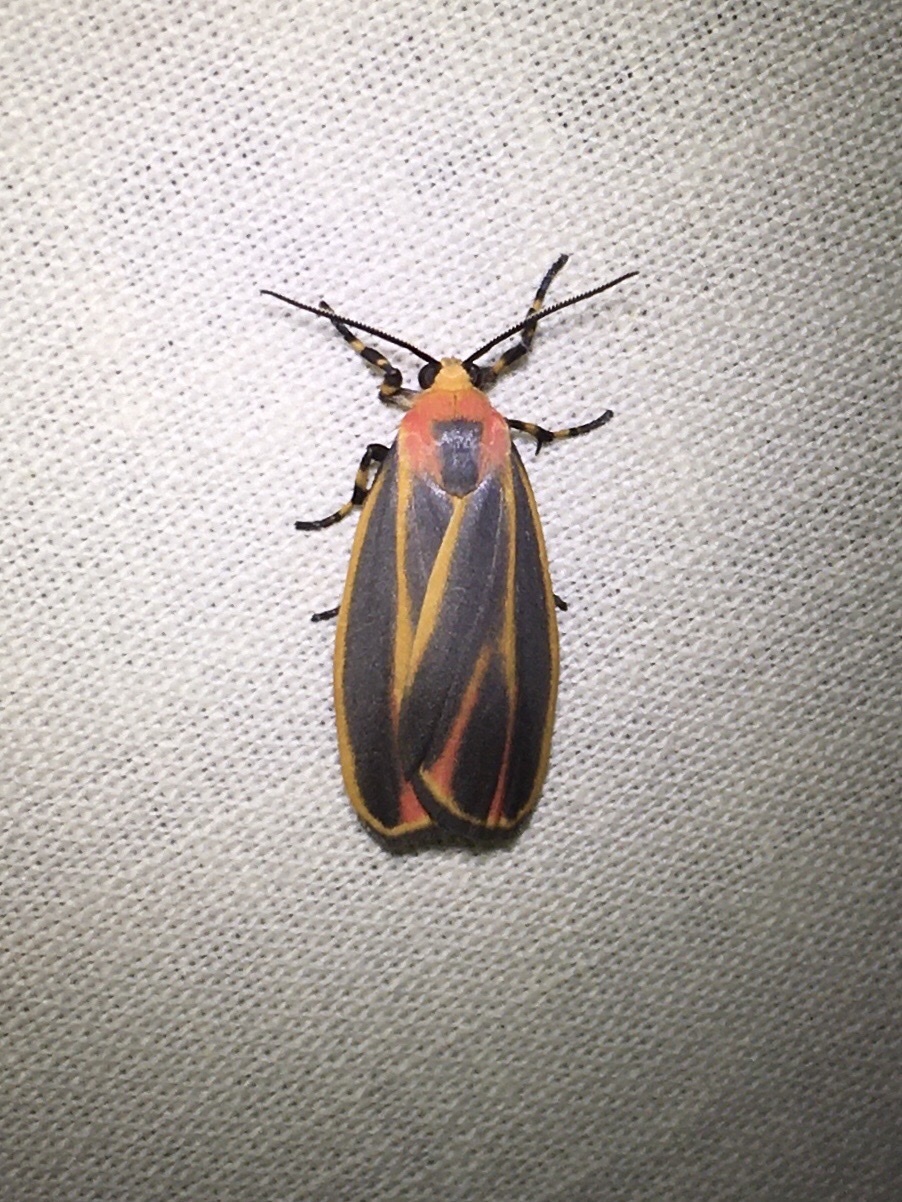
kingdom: Animalia
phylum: Arthropoda
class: Insecta
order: Lepidoptera
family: Erebidae
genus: Hypoprepia
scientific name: Hypoprepia fucosa
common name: Painted lichen moth
